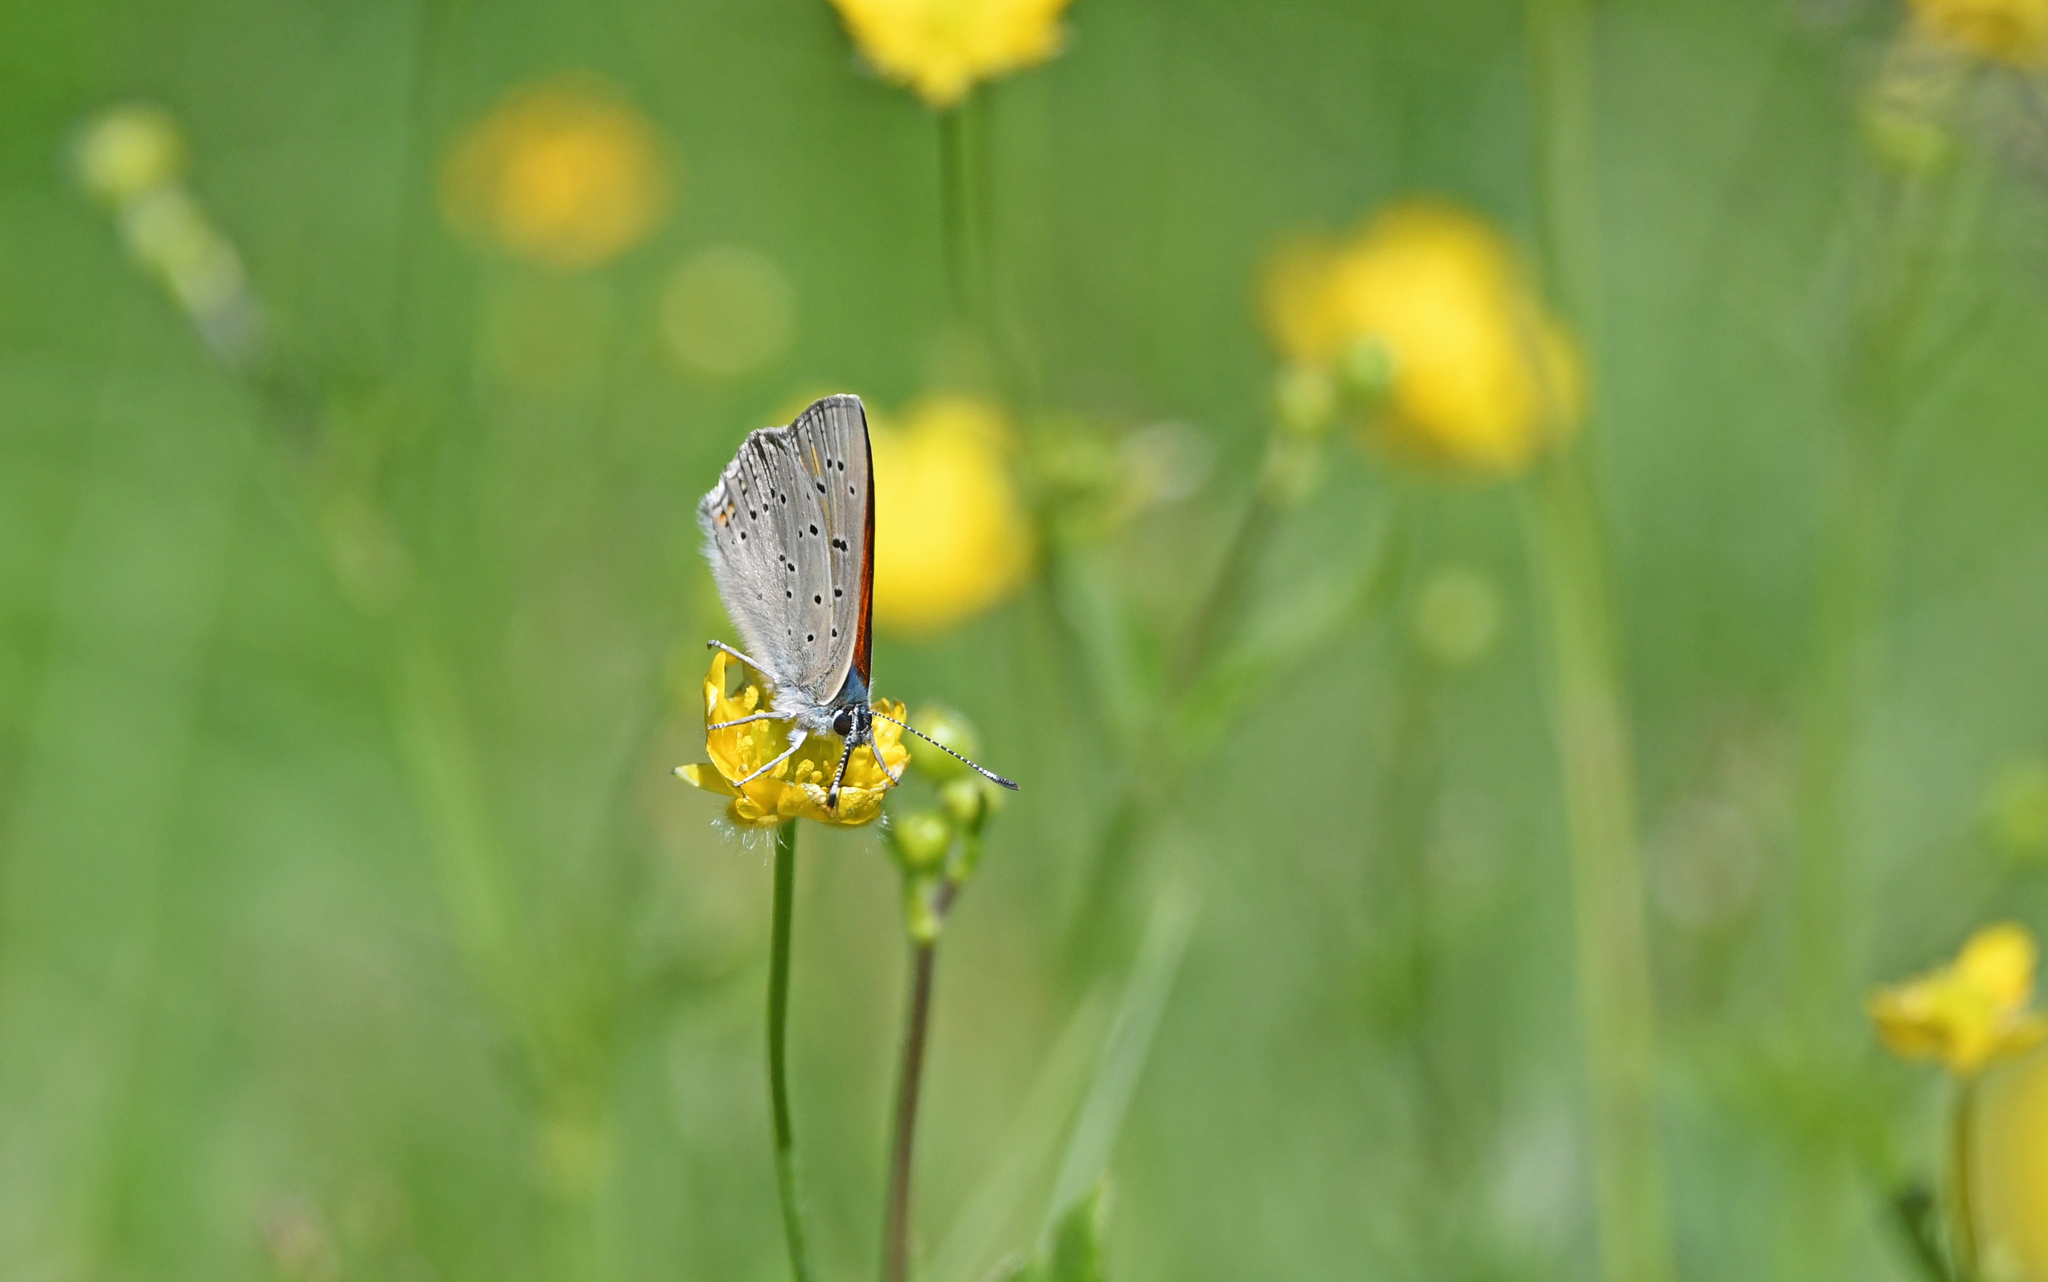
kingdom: Animalia
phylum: Arthropoda
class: Insecta
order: Lepidoptera
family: Lycaenidae
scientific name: Lycaenidae
